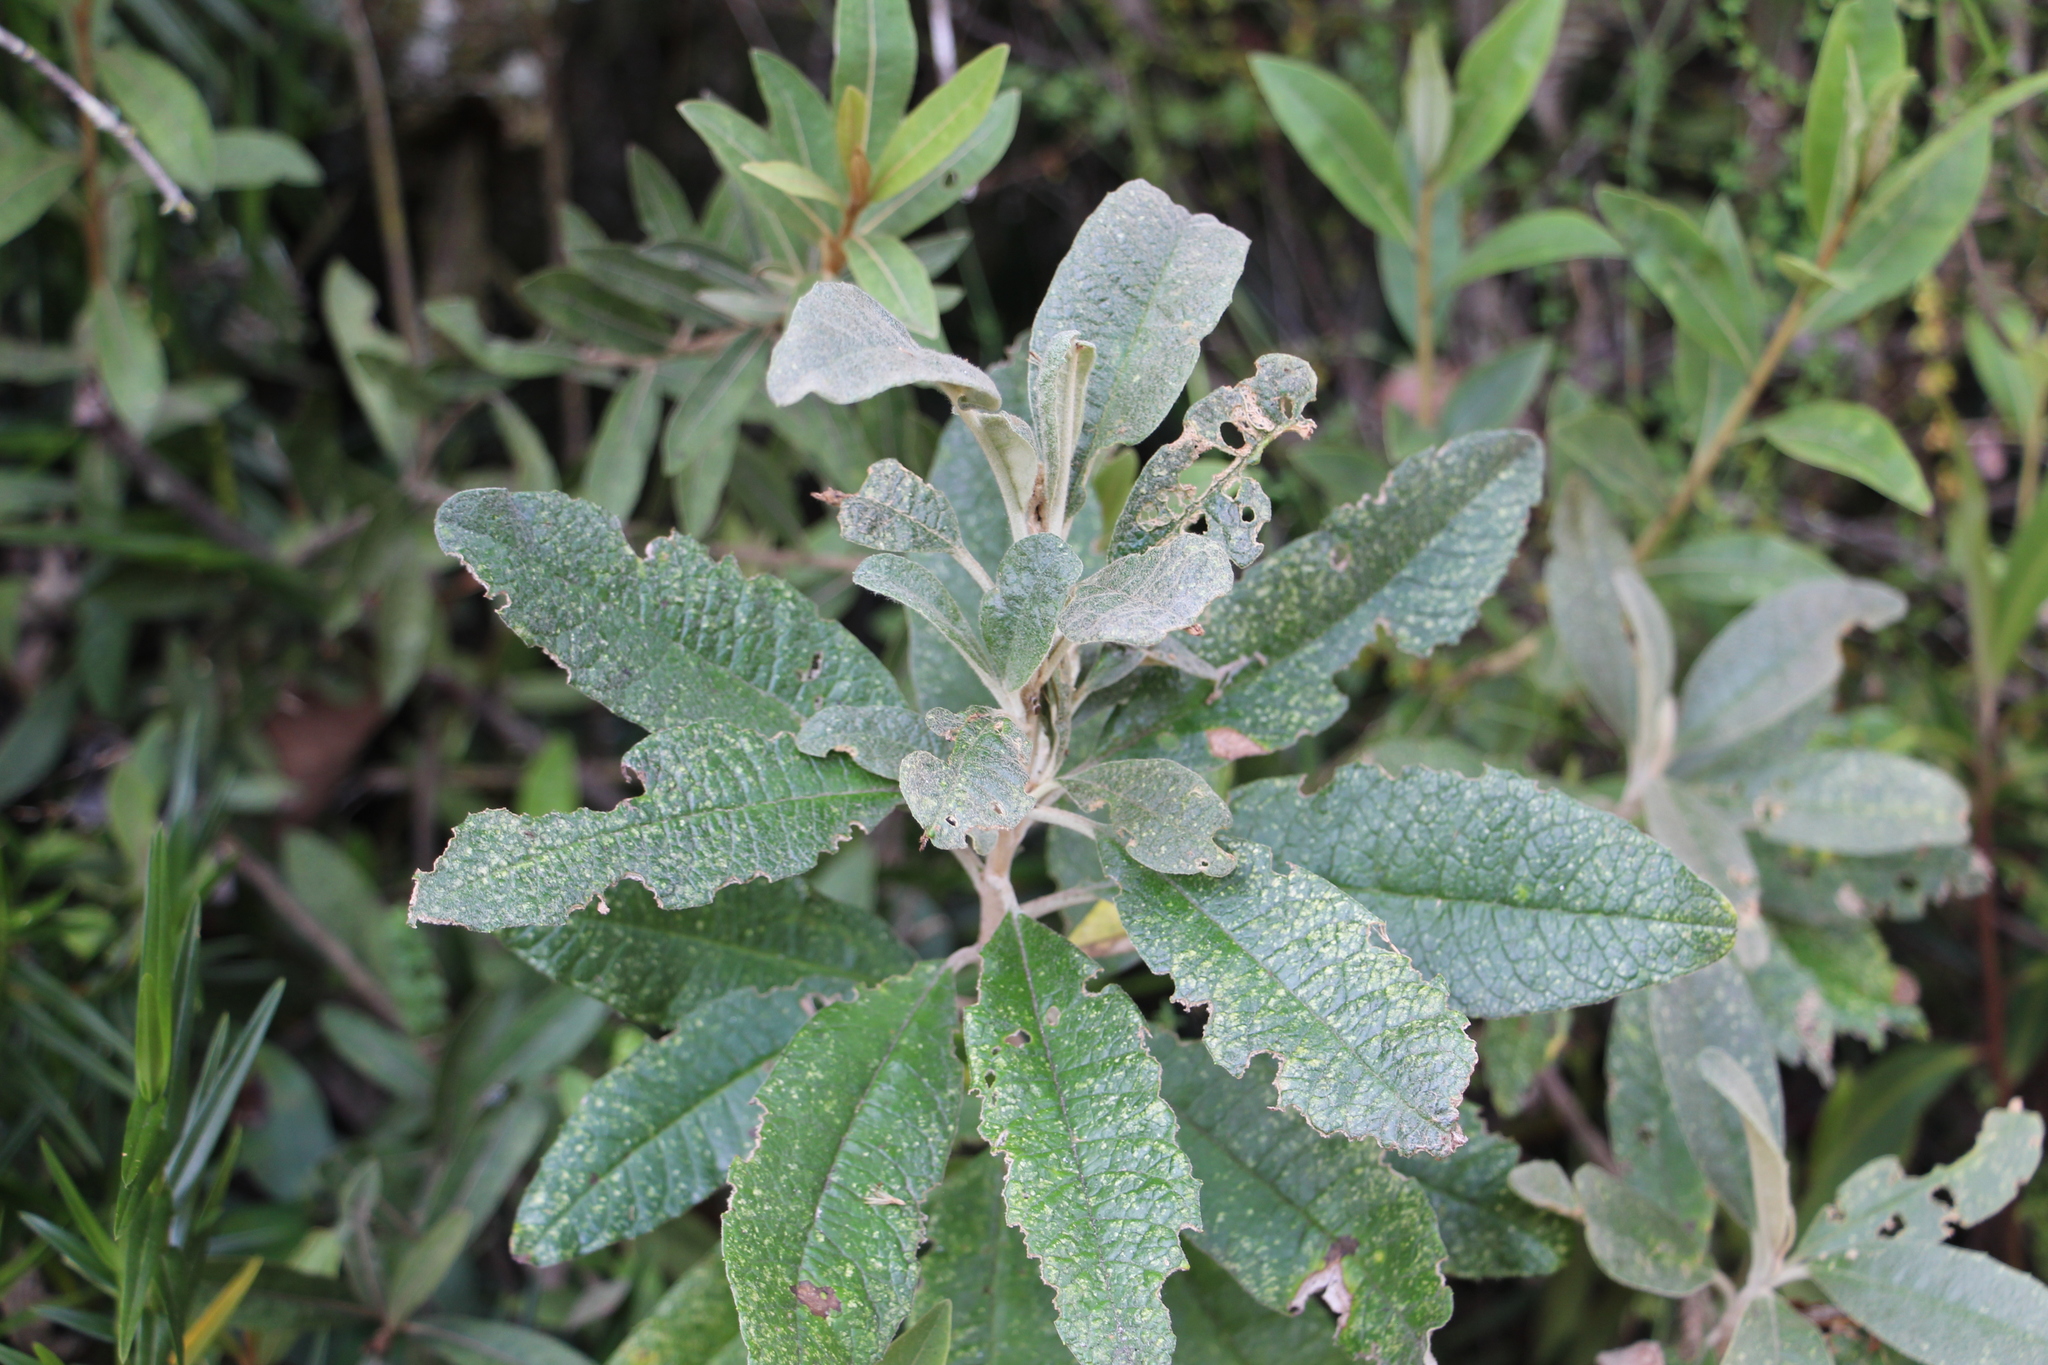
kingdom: Plantae
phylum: Tracheophyta
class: Magnoliopsida
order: Asterales
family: Asteraceae
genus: Linochilus
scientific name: Linochilus tenuifolius
